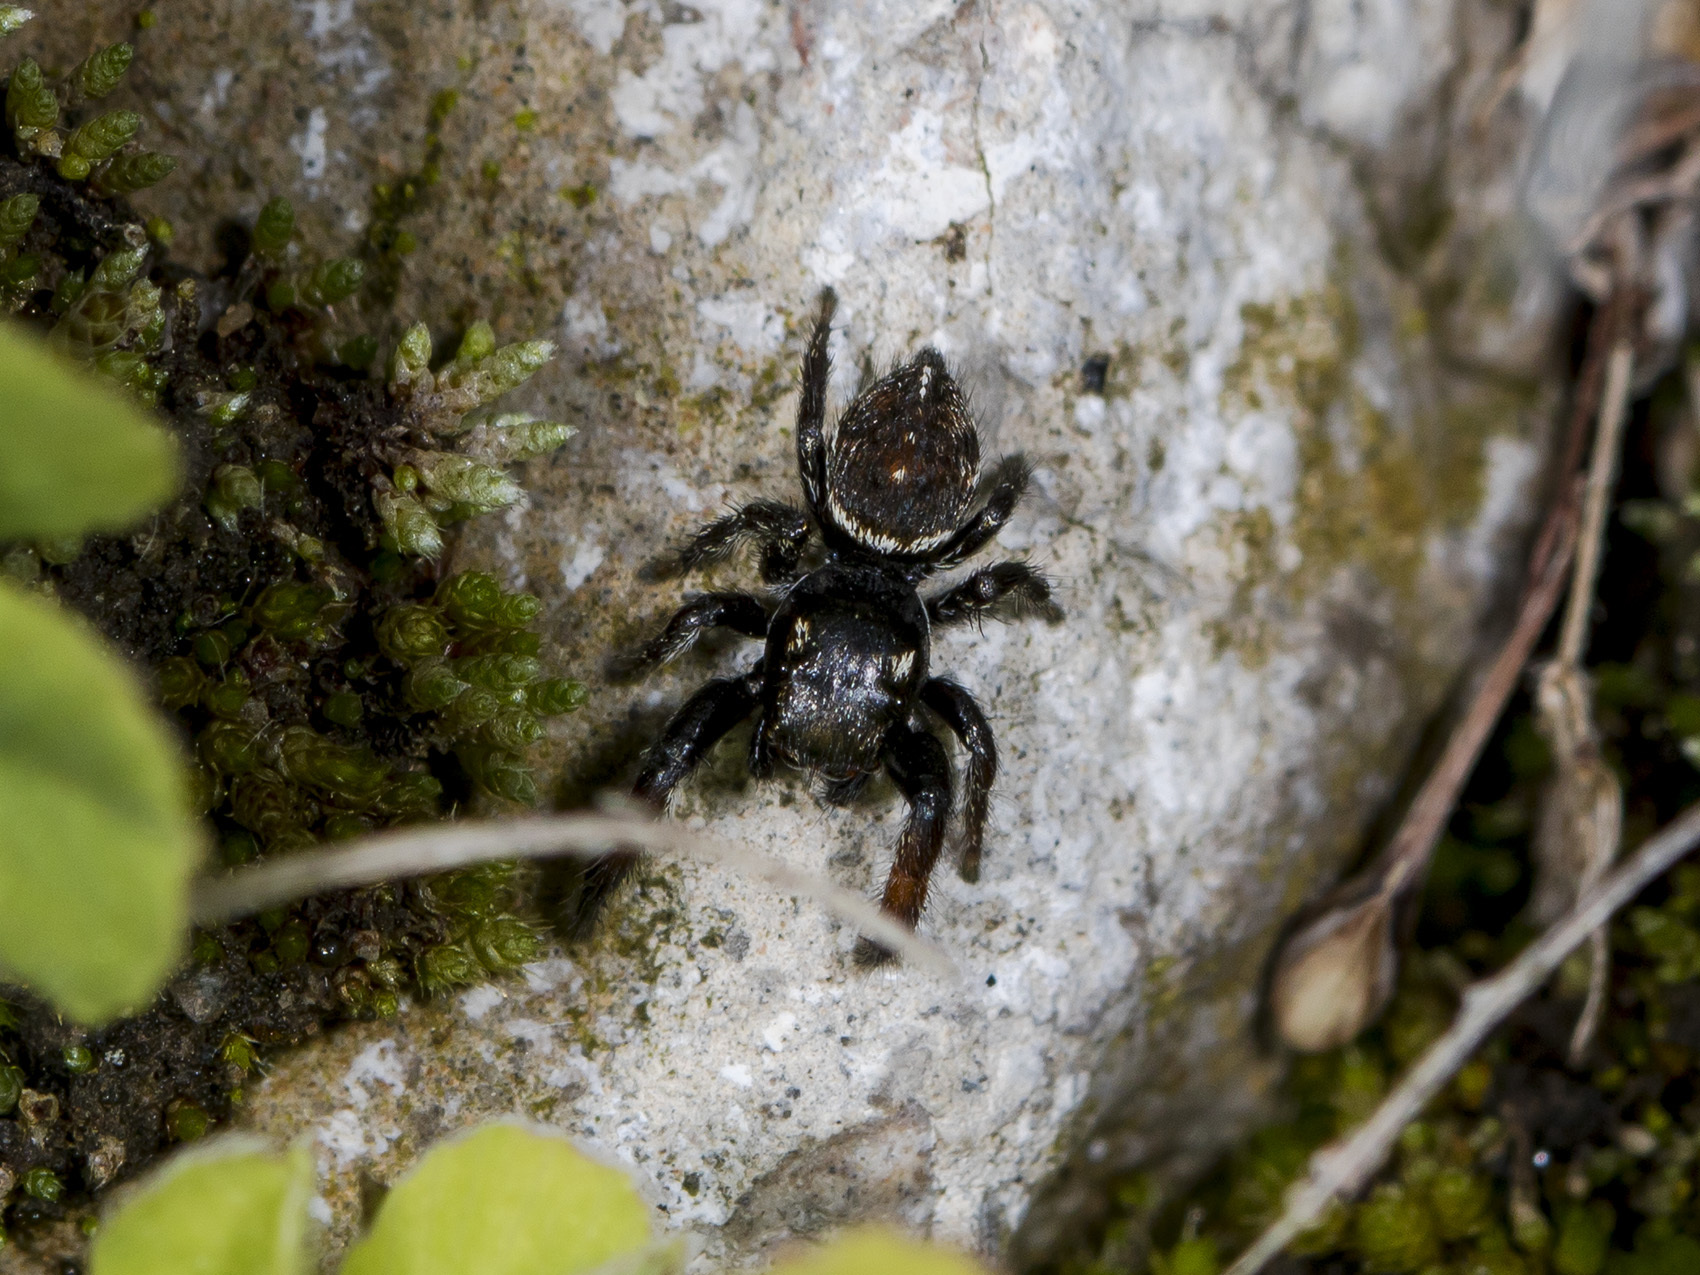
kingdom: Animalia
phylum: Arthropoda
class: Arachnida
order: Araneae
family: Salticidae
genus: Pellenes
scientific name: Pellenes allegrii
